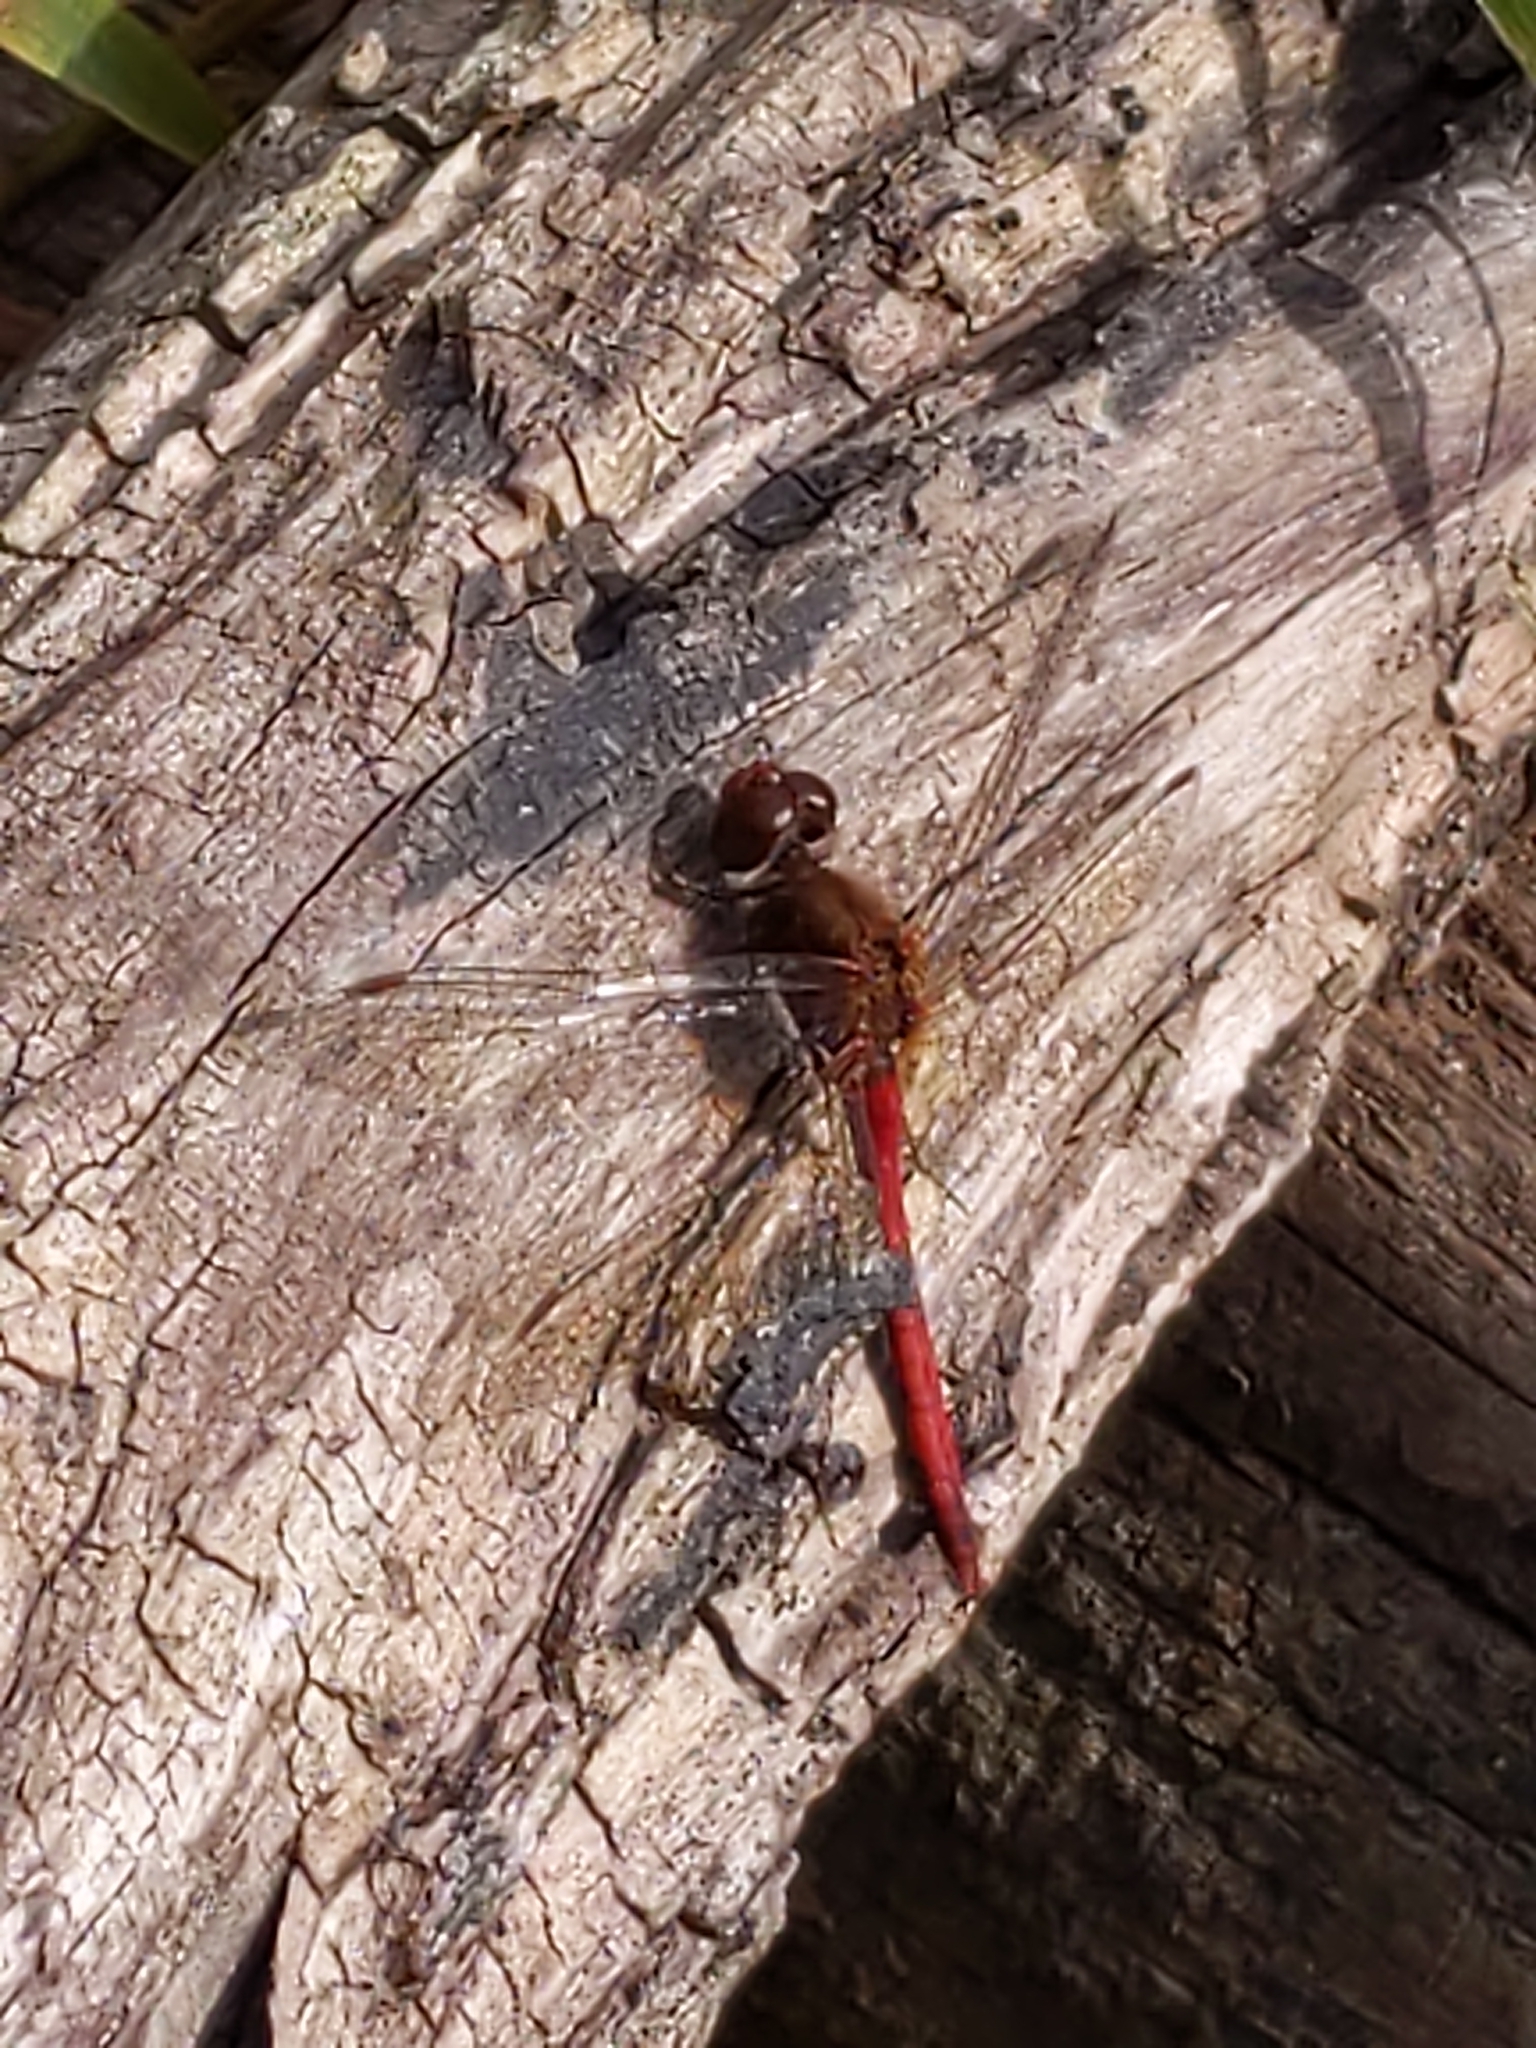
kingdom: Animalia
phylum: Arthropoda
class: Insecta
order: Odonata
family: Libellulidae
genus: Sympetrum
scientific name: Sympetrum vicinum
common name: Autumn meadowhawk
